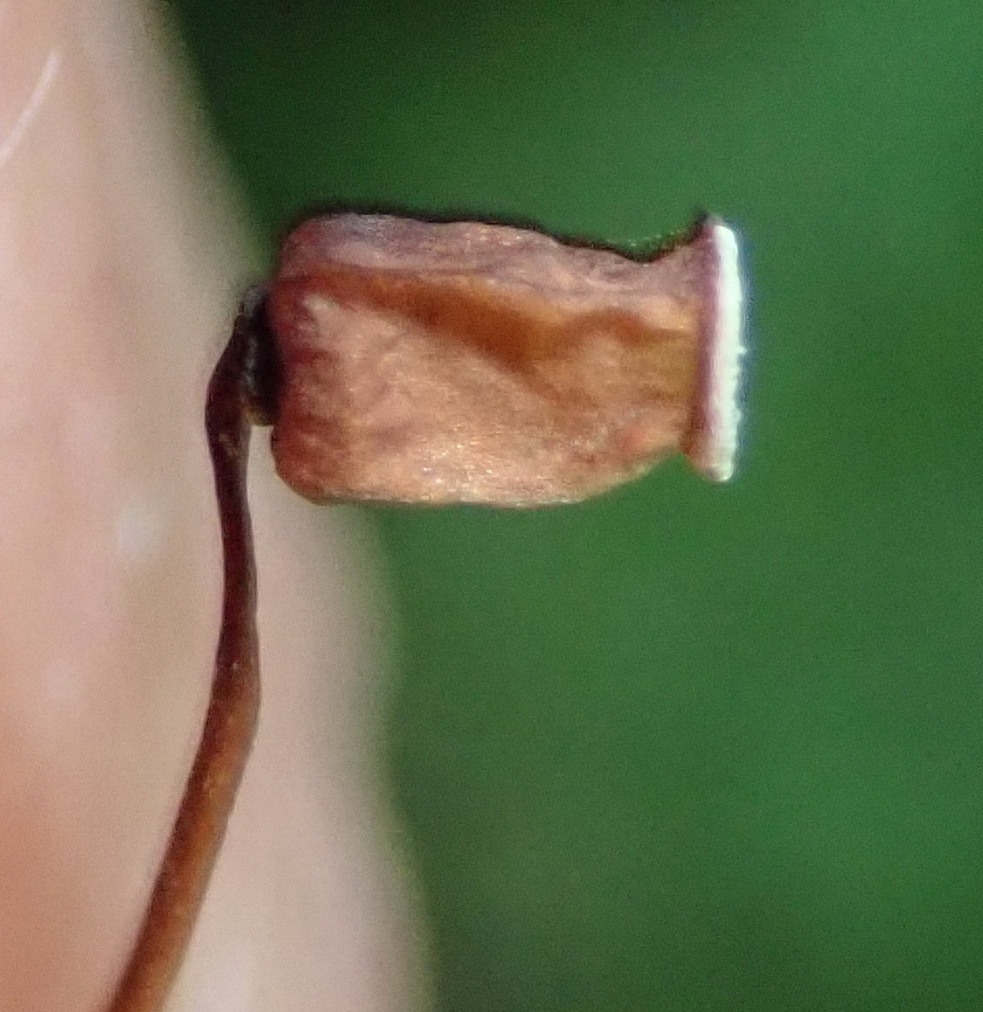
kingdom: Plantae
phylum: Bryophyta
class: Polytrichopsida
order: Polytrichales
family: Polytrichaceae
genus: Polytrichum
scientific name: Polytrichum commune
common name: Common haircap
